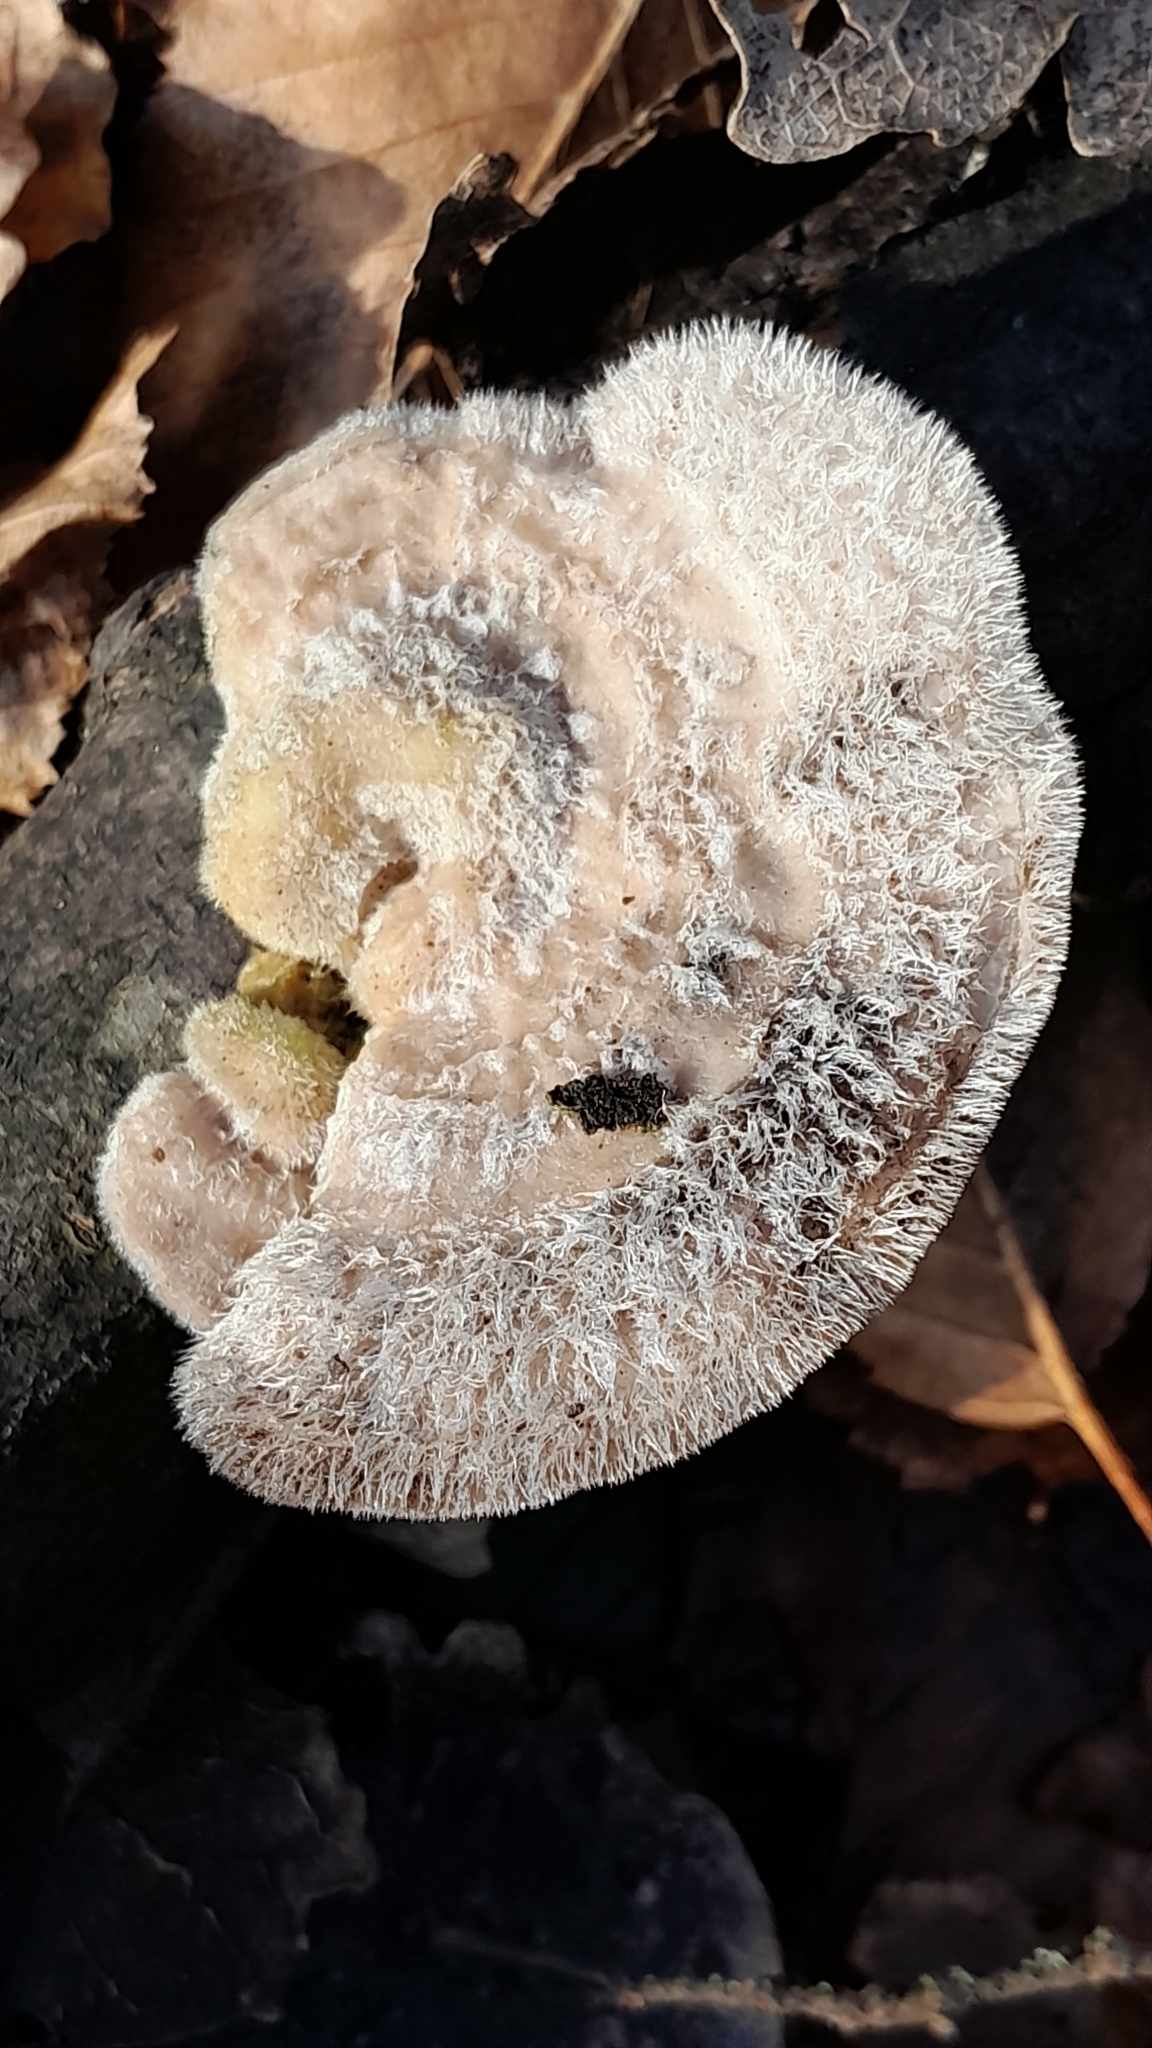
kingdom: Fungi
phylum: Basidiomycota
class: Agaricomycetes
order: Polyporales
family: Polyporaceae
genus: Trametes
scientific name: Trametes hirsuta
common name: Hairy bracket
